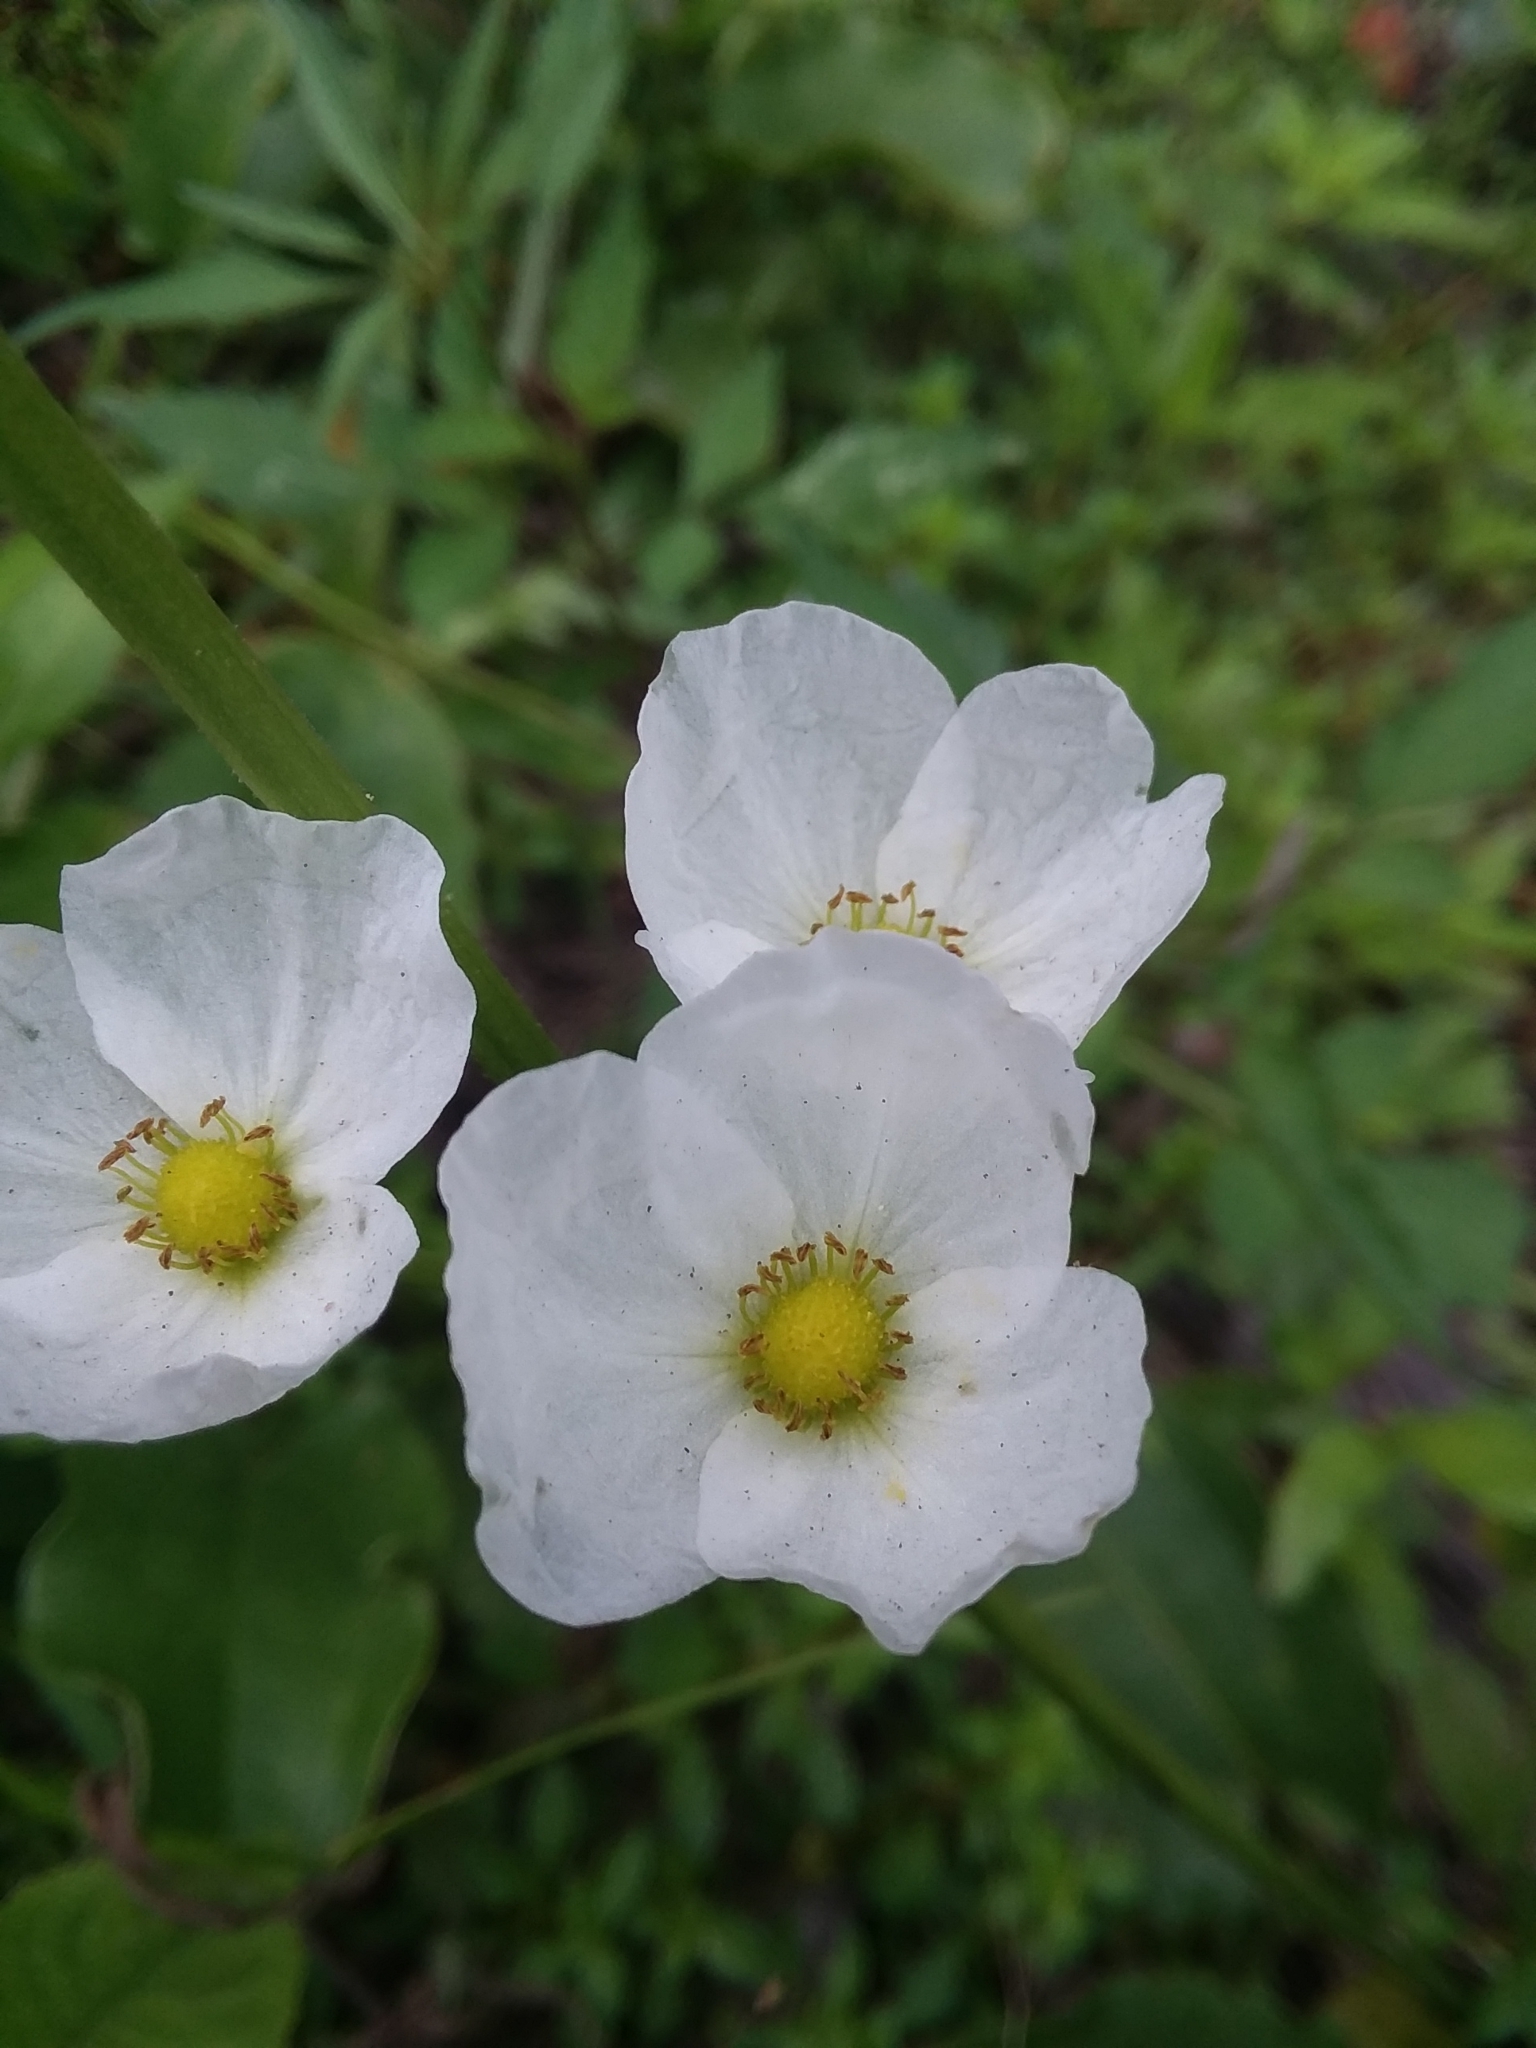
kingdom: Plantae
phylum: Tracheophyta
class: Liliopsida
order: Alismatales
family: Alismataceae
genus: Aquarius
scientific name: Aquarius cordifolius
